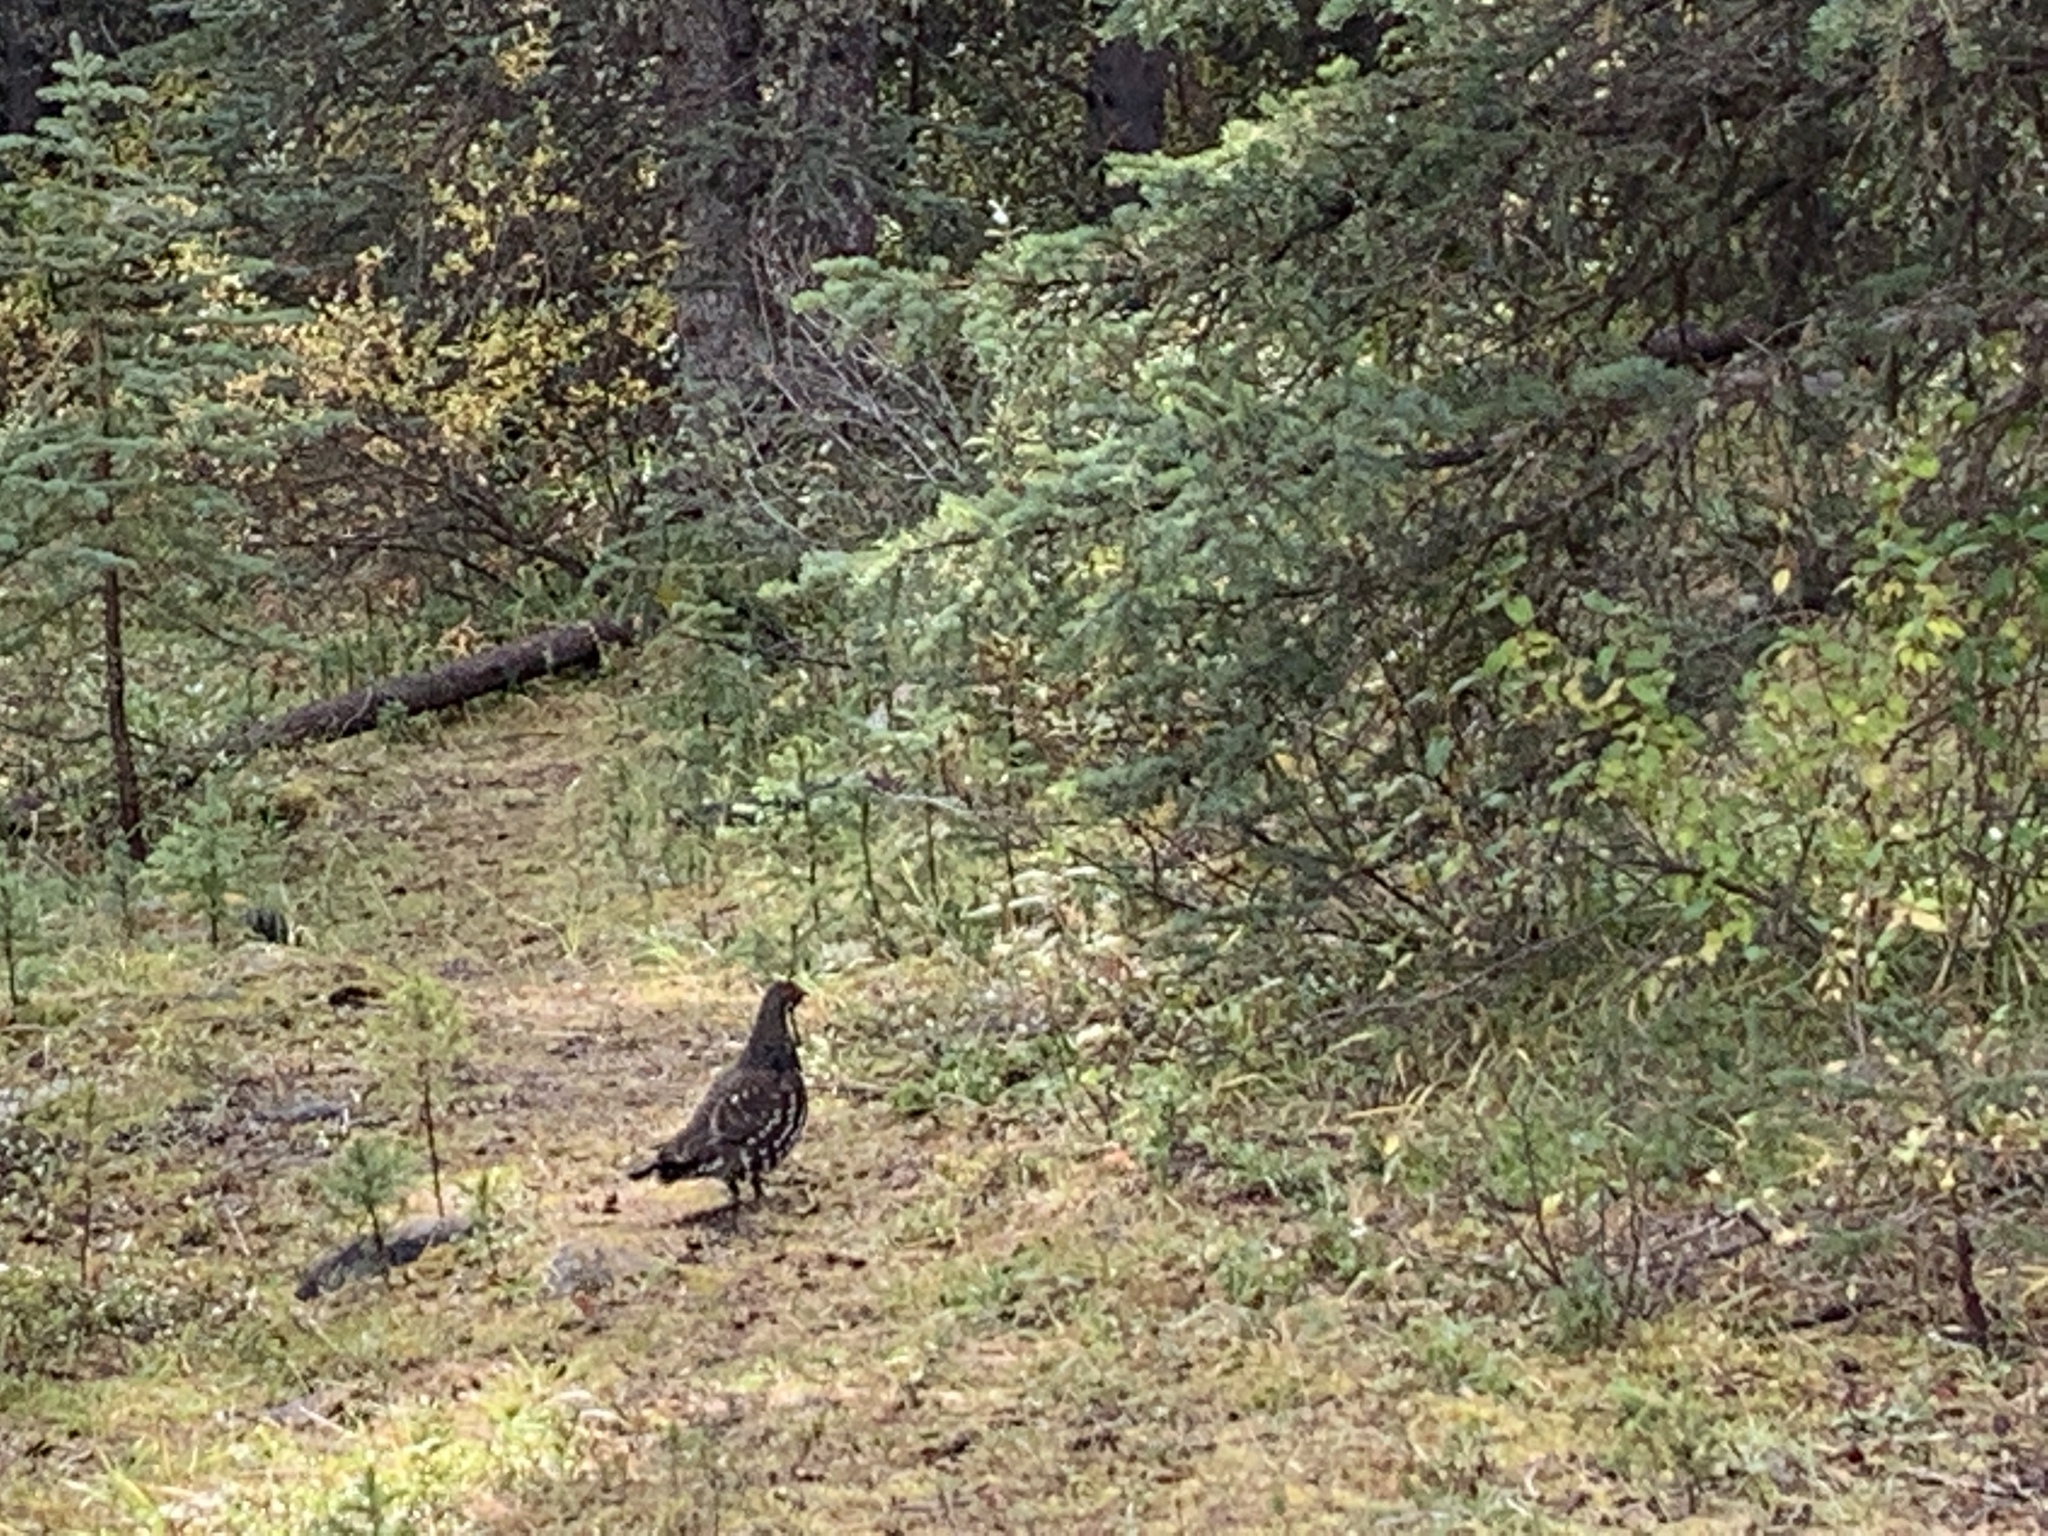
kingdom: Animalia
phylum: Chordata
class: Aves
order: Galliformes
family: Phasianidae
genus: Canachites
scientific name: Canachites canadensis
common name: Spruce grouse
